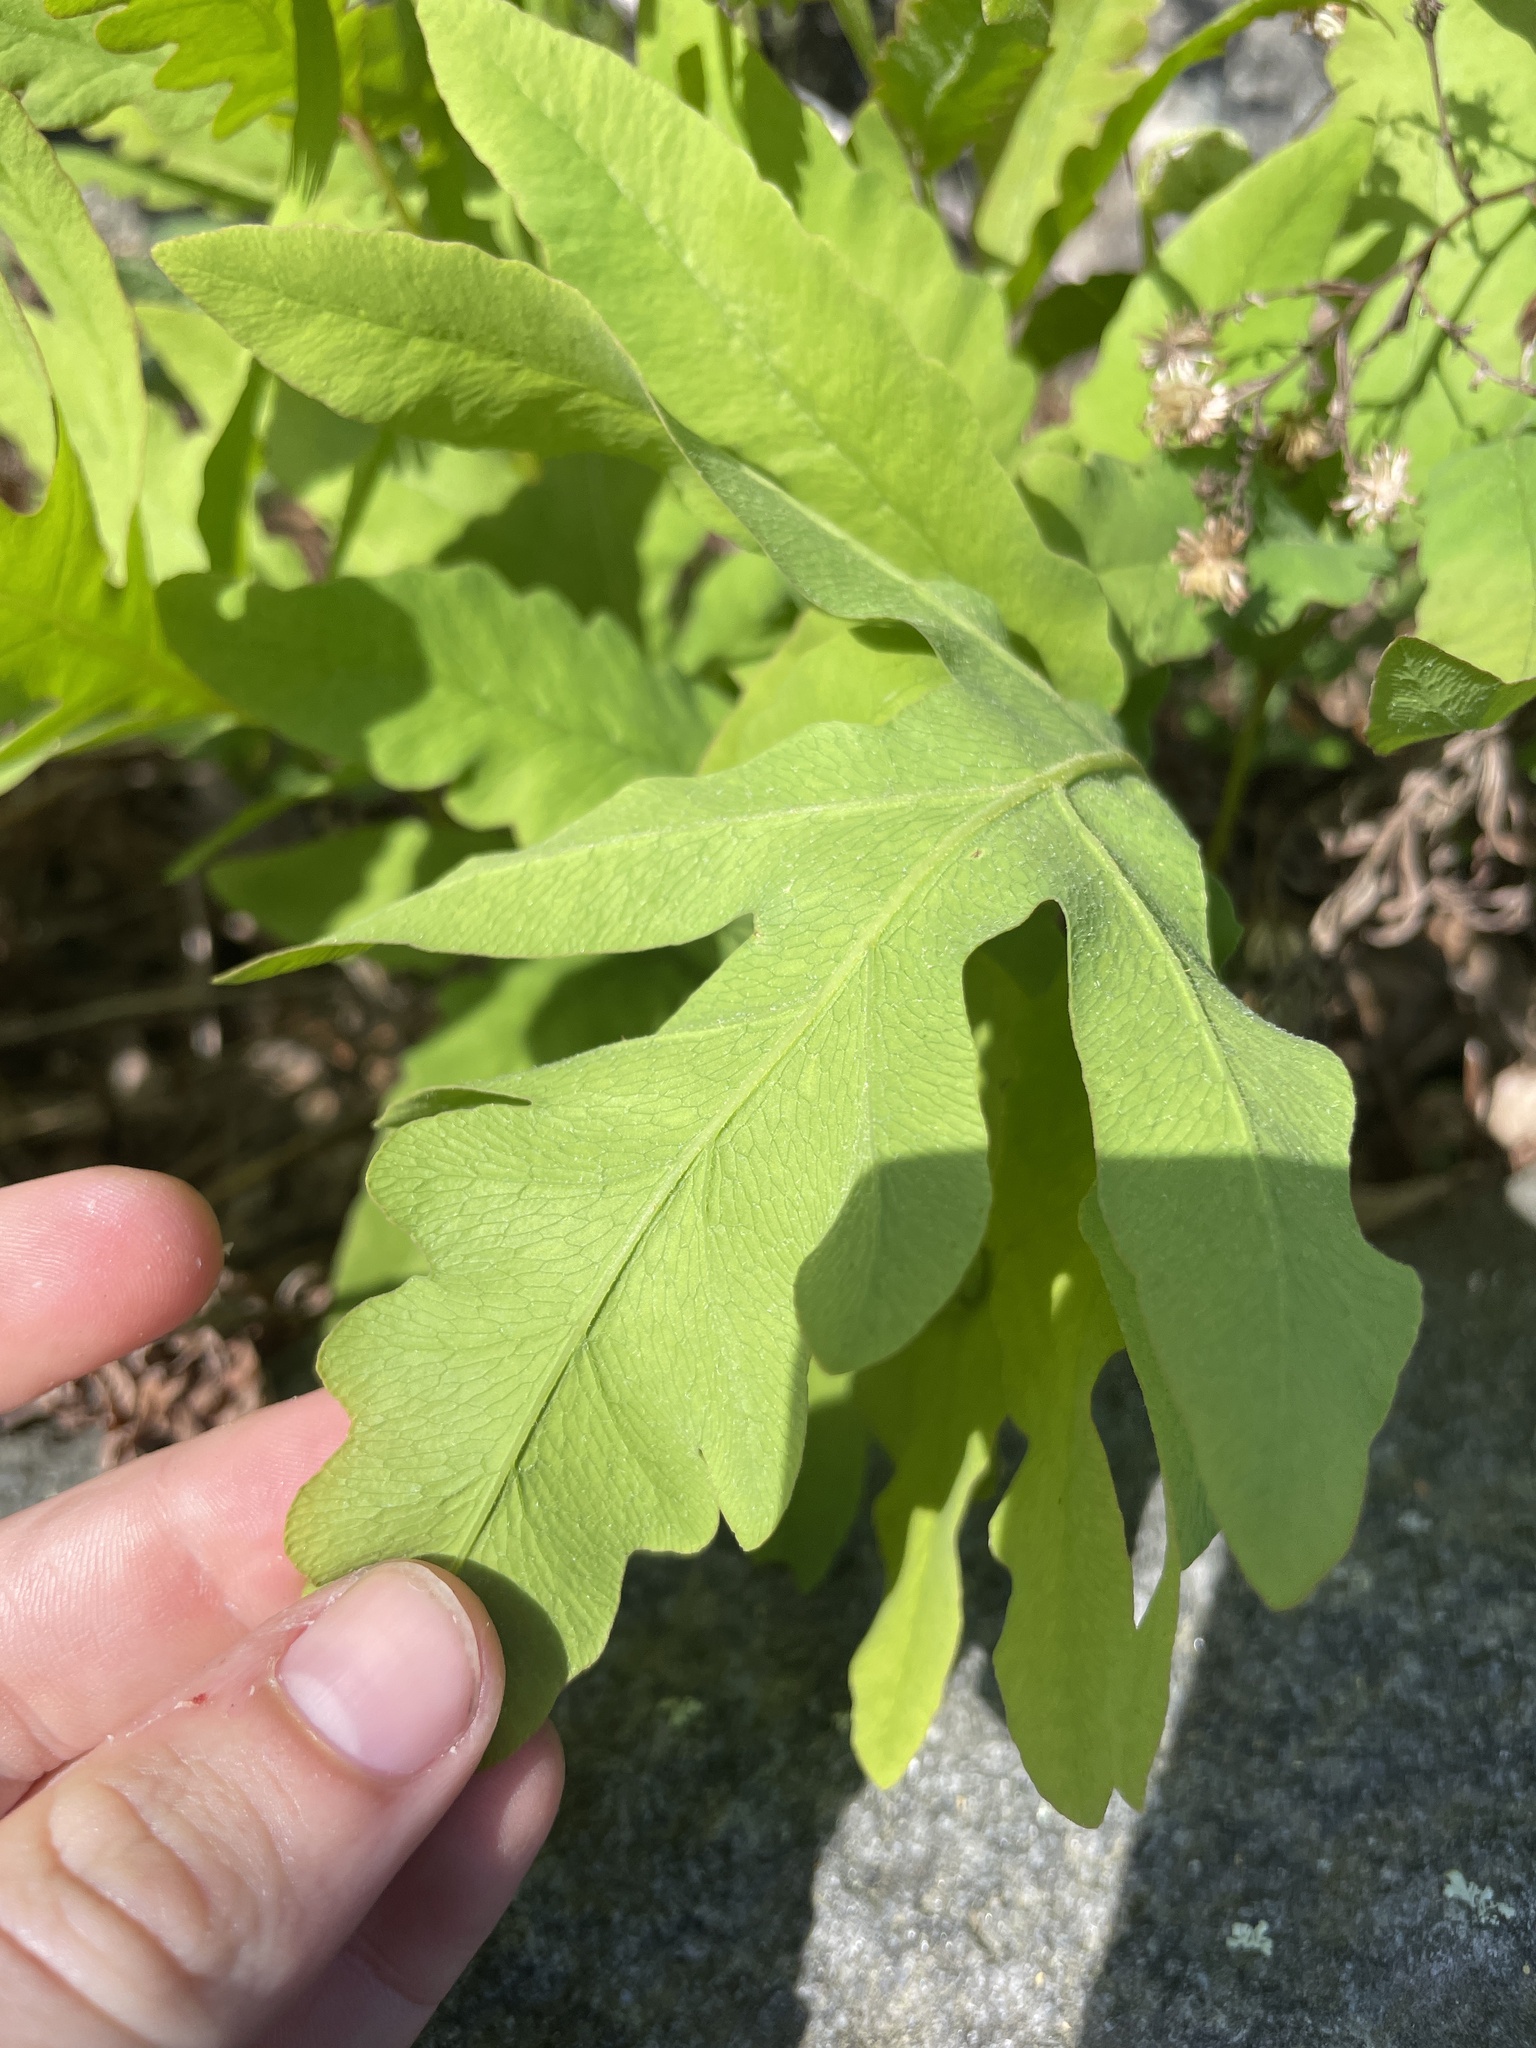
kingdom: Plantae
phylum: Tracheophyta
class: Polypodiopsida
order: Polypodiales
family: Onocleaceae
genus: Onoclea
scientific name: Onoclea sensibilis
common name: Sensitive fern
